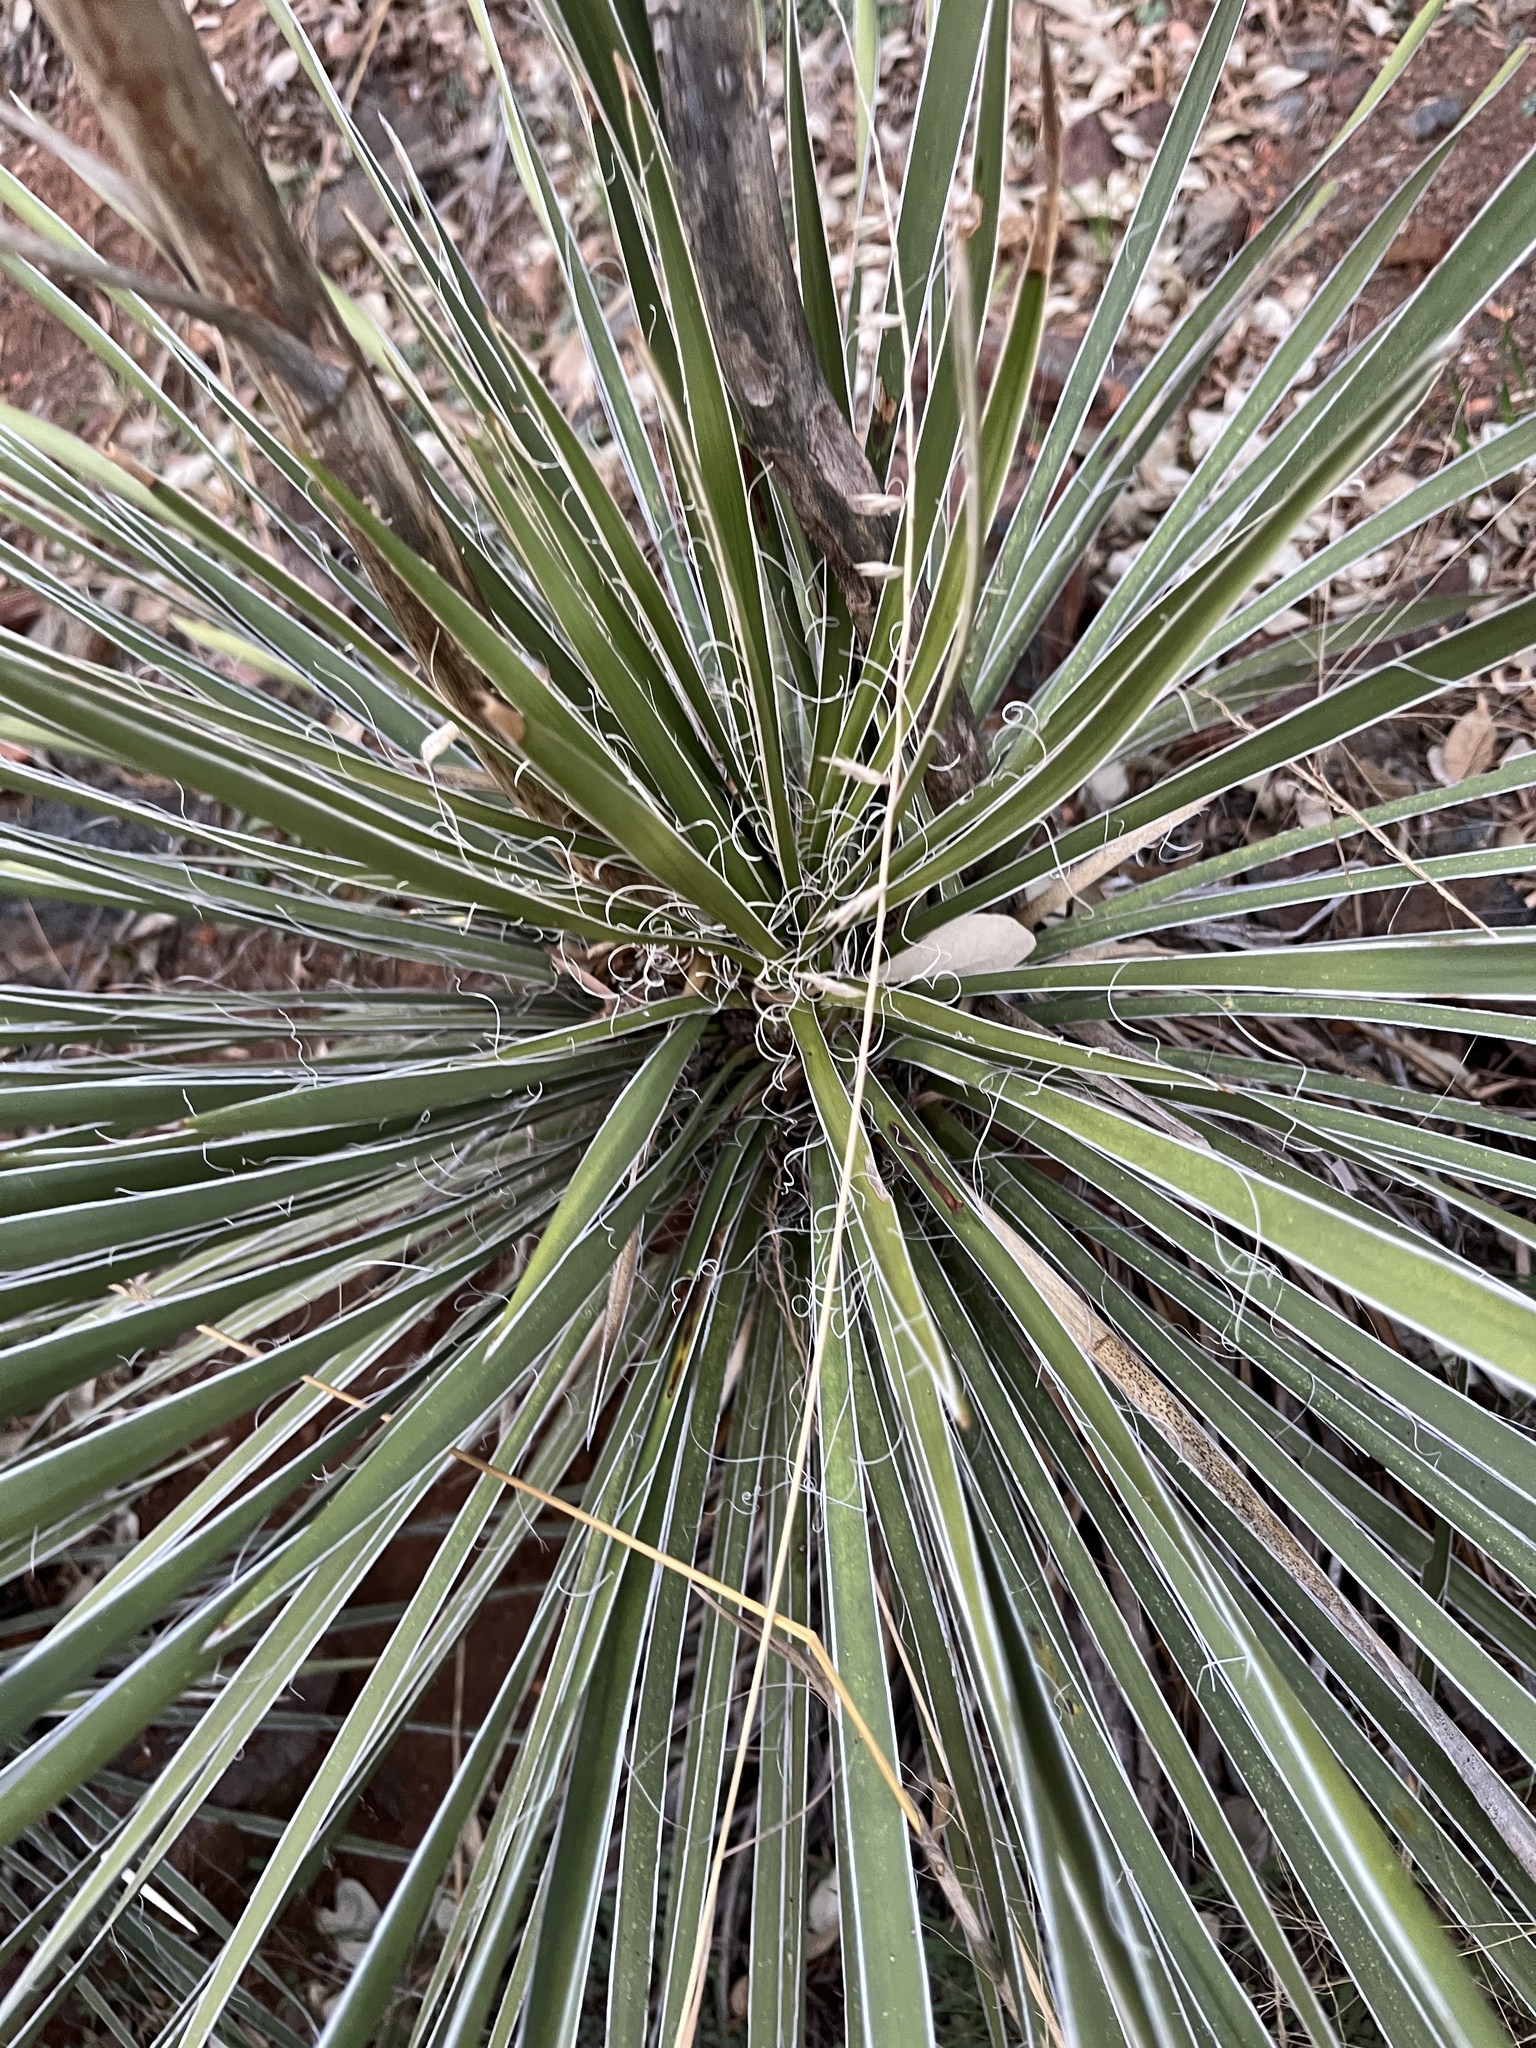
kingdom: Plantae
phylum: Tracheophyta
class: Liliopsida
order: Asparagales
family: Asparagaceae
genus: Yucca
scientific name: Yucca constricta
